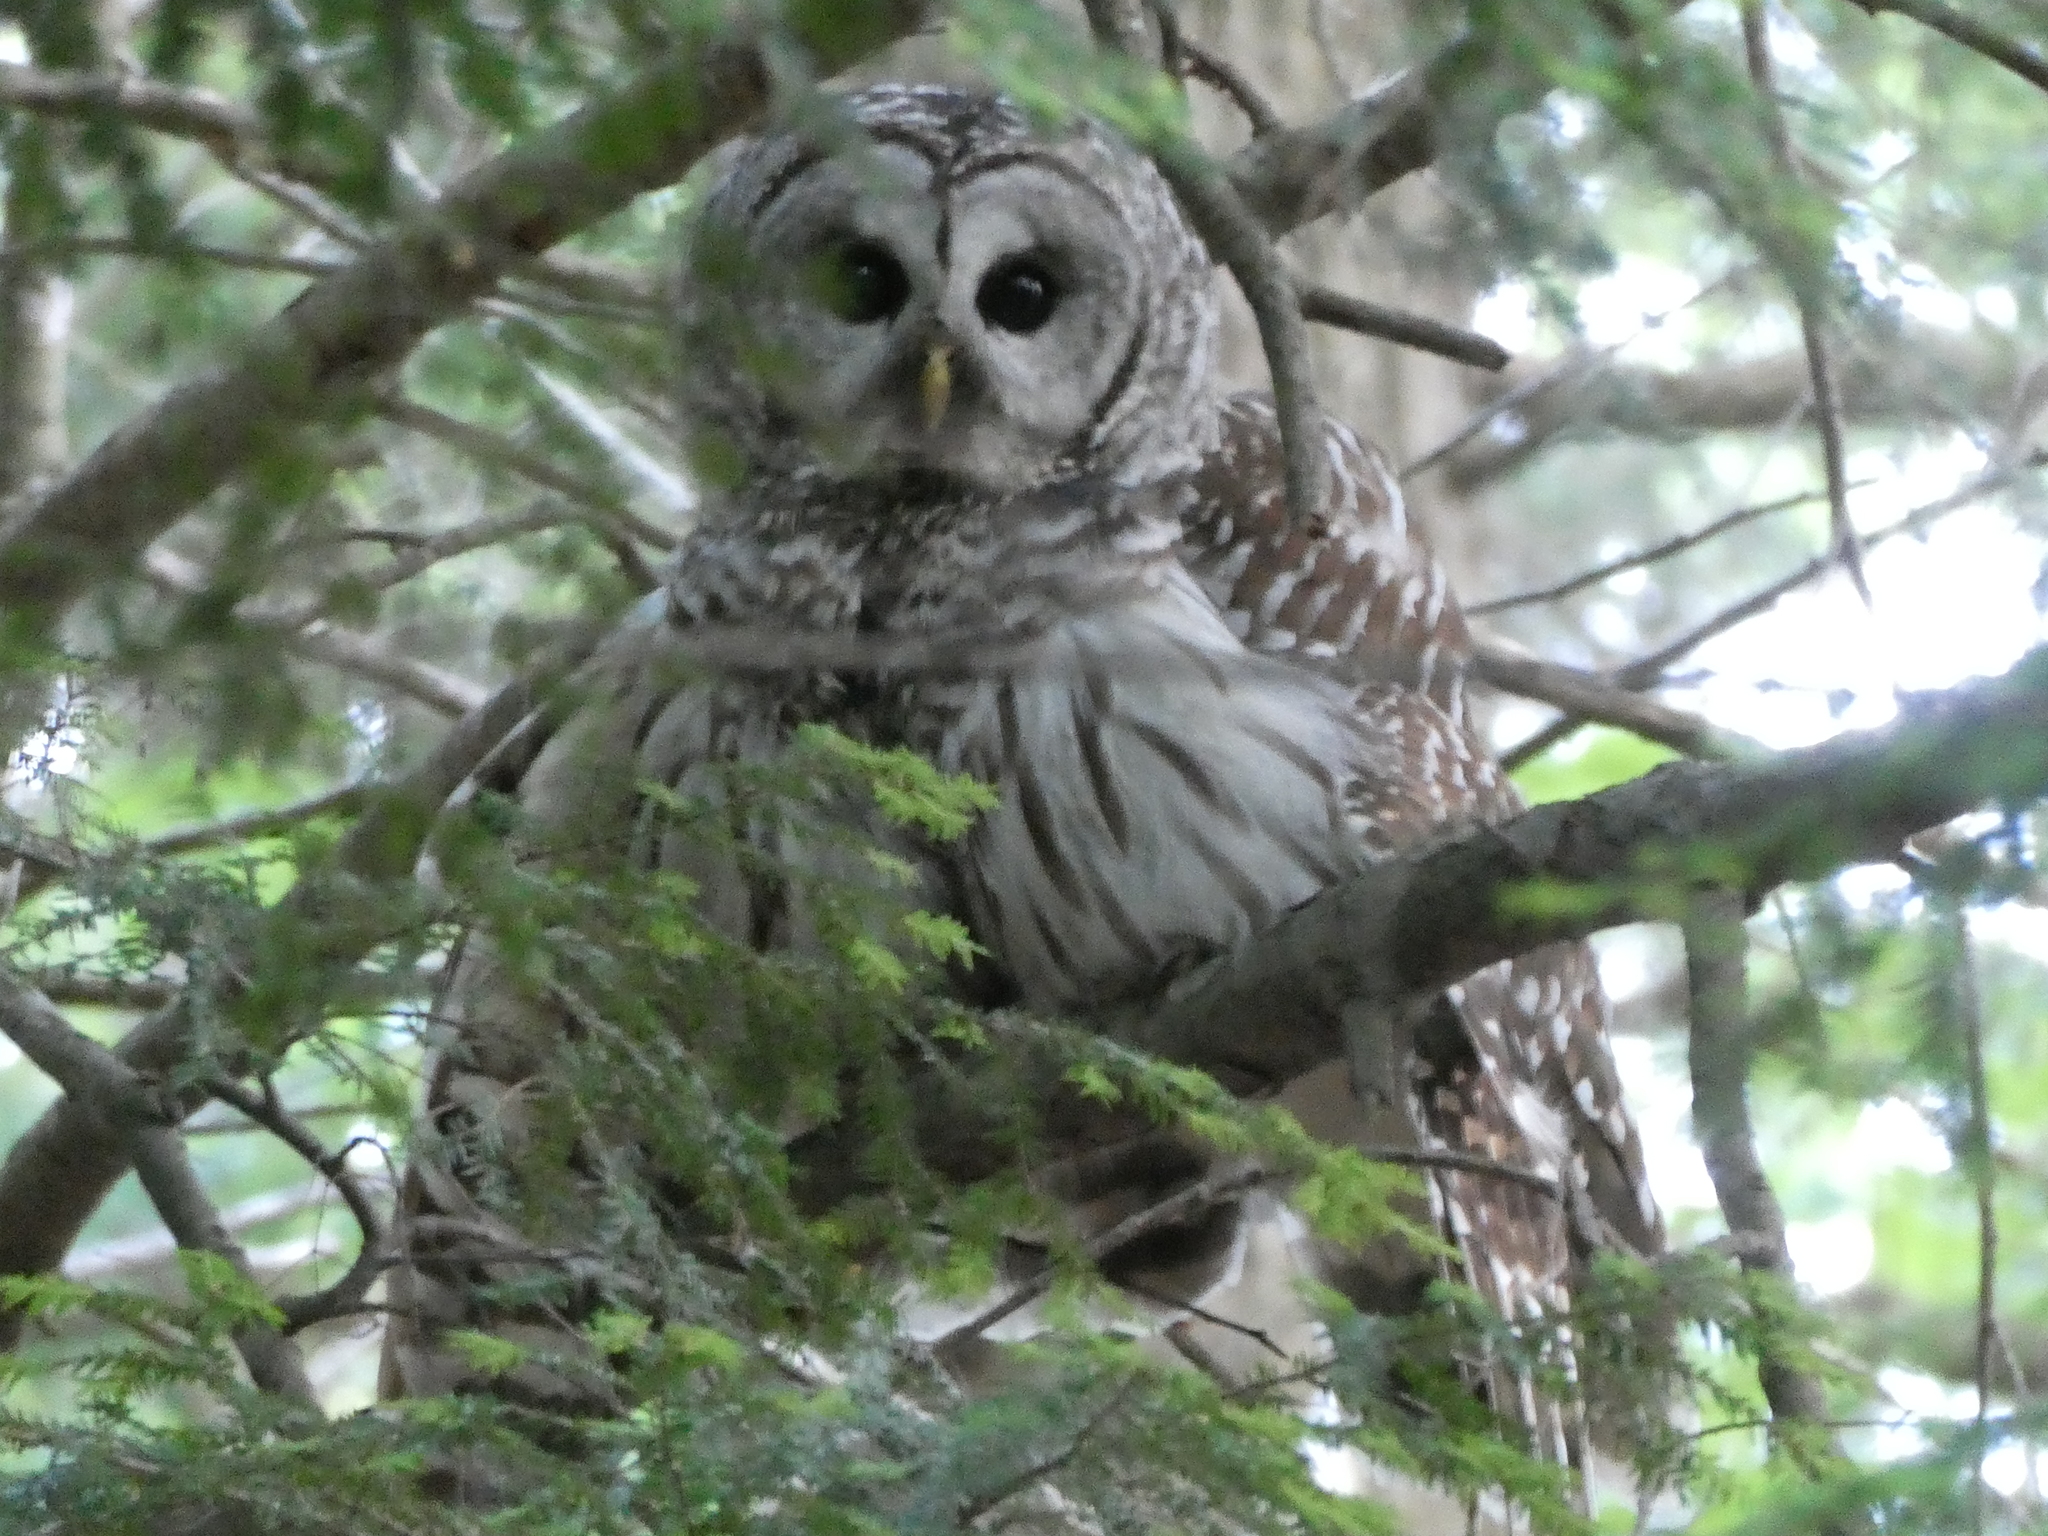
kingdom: Animalia
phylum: Chordata
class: Aves
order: Strigiformes
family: Strigidae
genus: Strix
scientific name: Strix varia
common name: Barred owl
